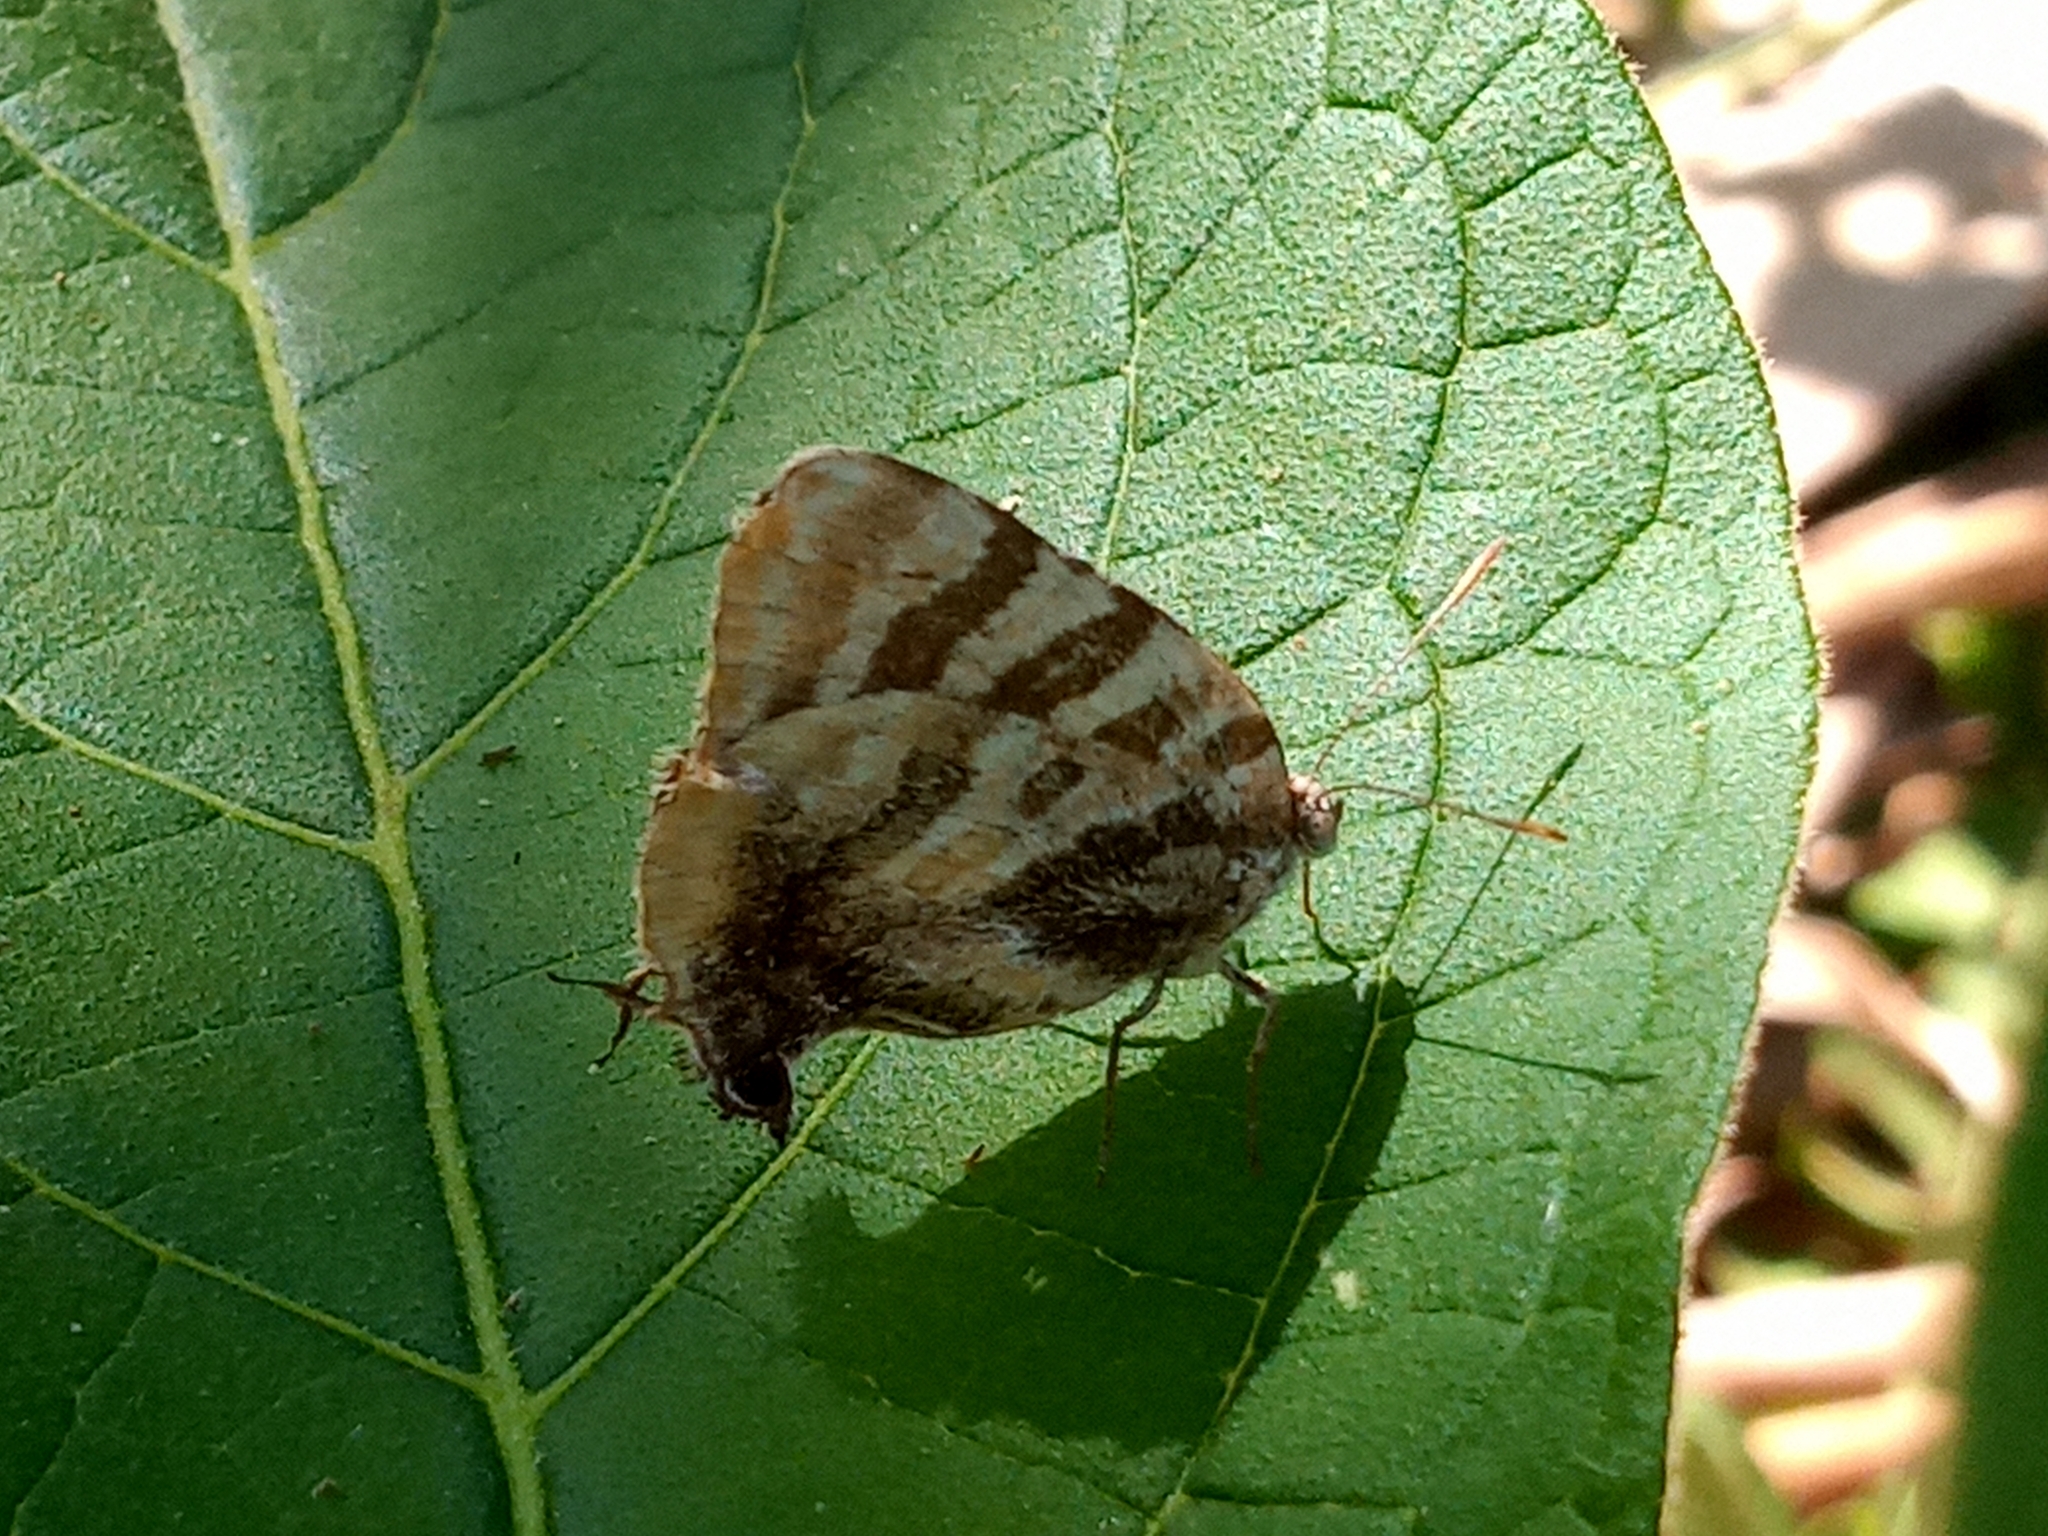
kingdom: Animalia
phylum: Arthropoda
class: Insecta
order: Lepidoptera
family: Lycaenidae
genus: Arawacus
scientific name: Arawacus ellida
